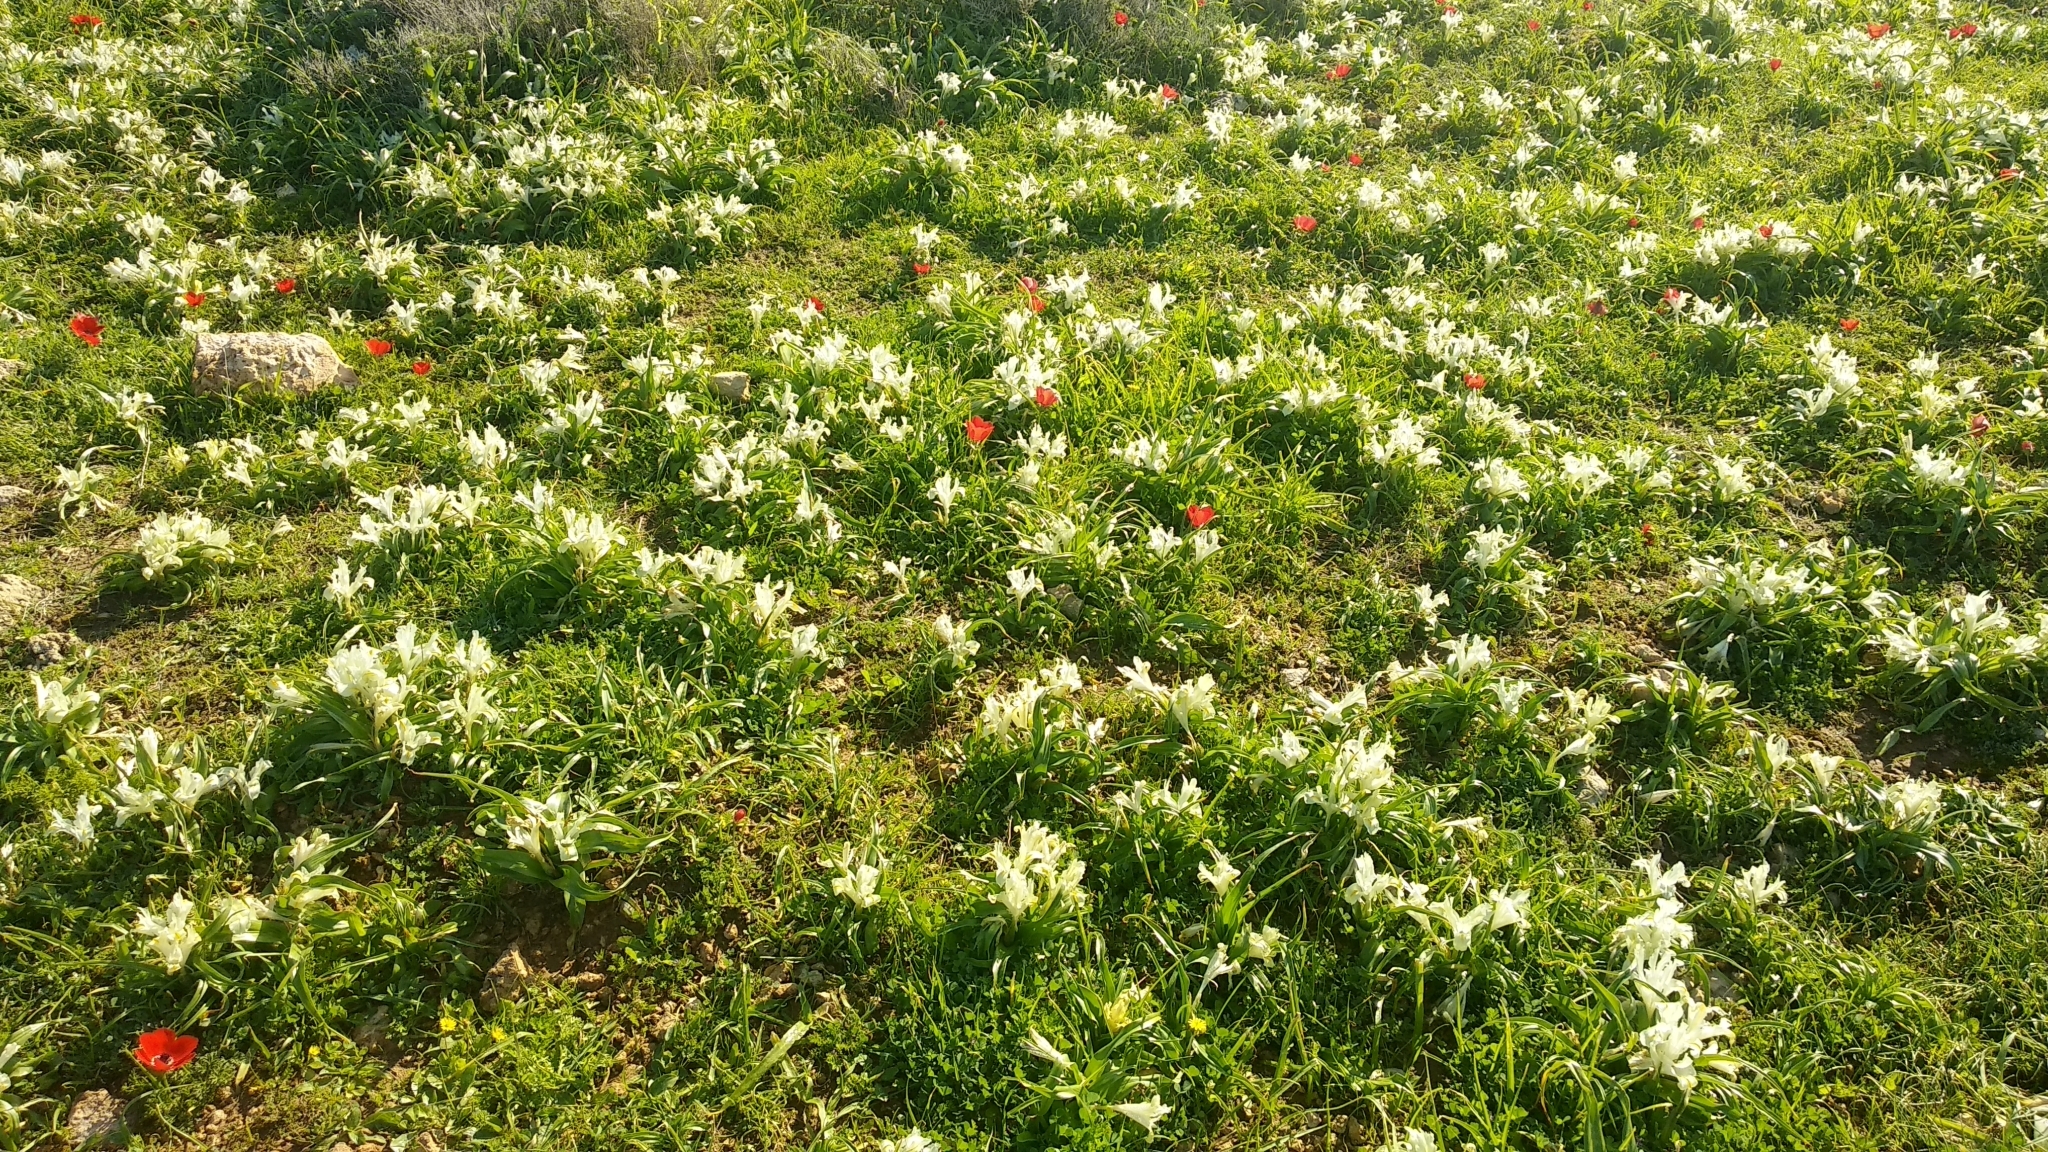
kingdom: Plantae
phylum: Tracheophyta
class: Liliopsida
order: Asparagales
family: Iridaceae
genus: Iris
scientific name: Iris palaestina
